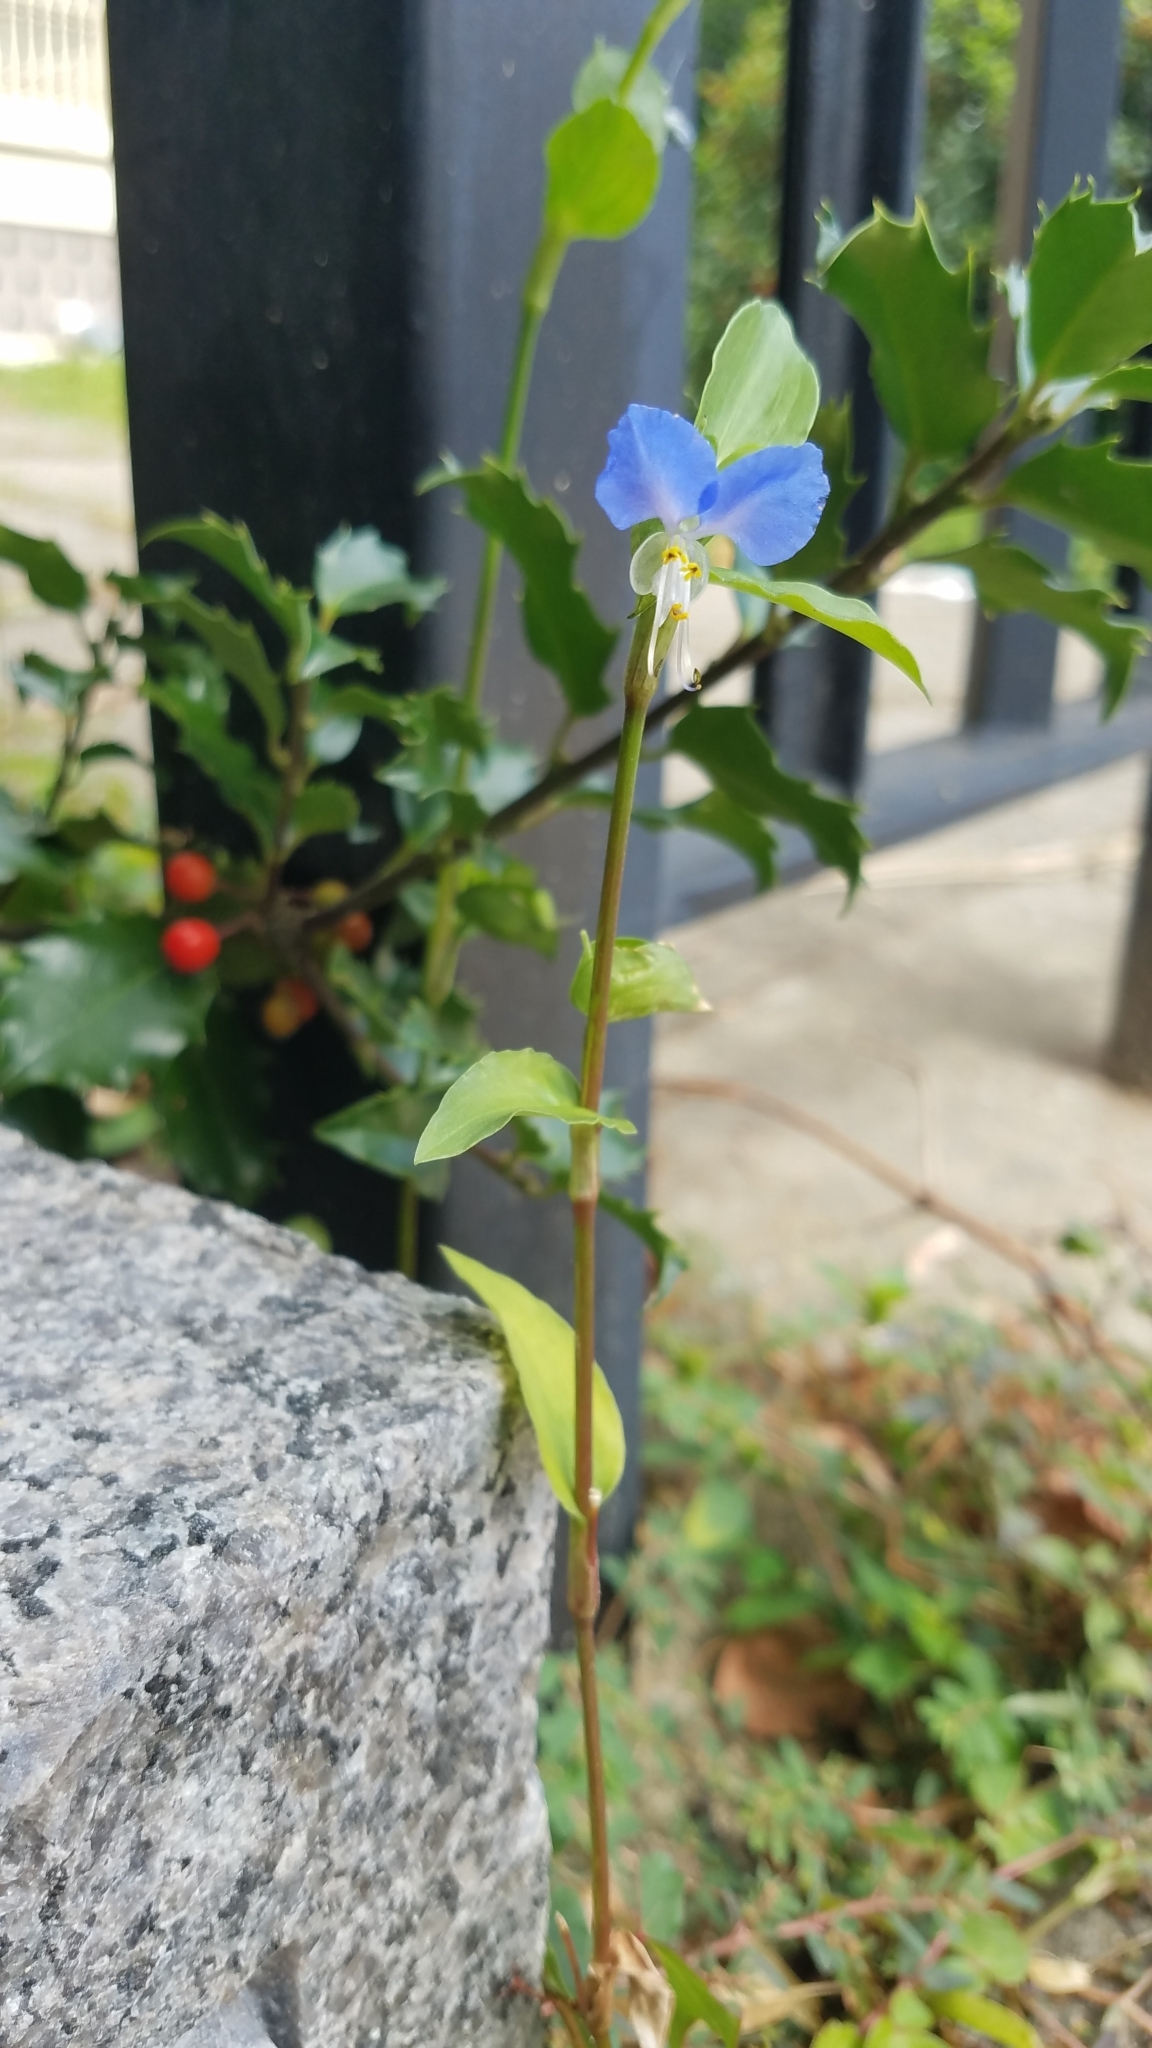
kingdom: Plantae
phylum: Tracheophyta
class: Liliopsida
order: Commelinales
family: Commelinaceae
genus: Commelina
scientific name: Commelina communis
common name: Asiatic dayflower
